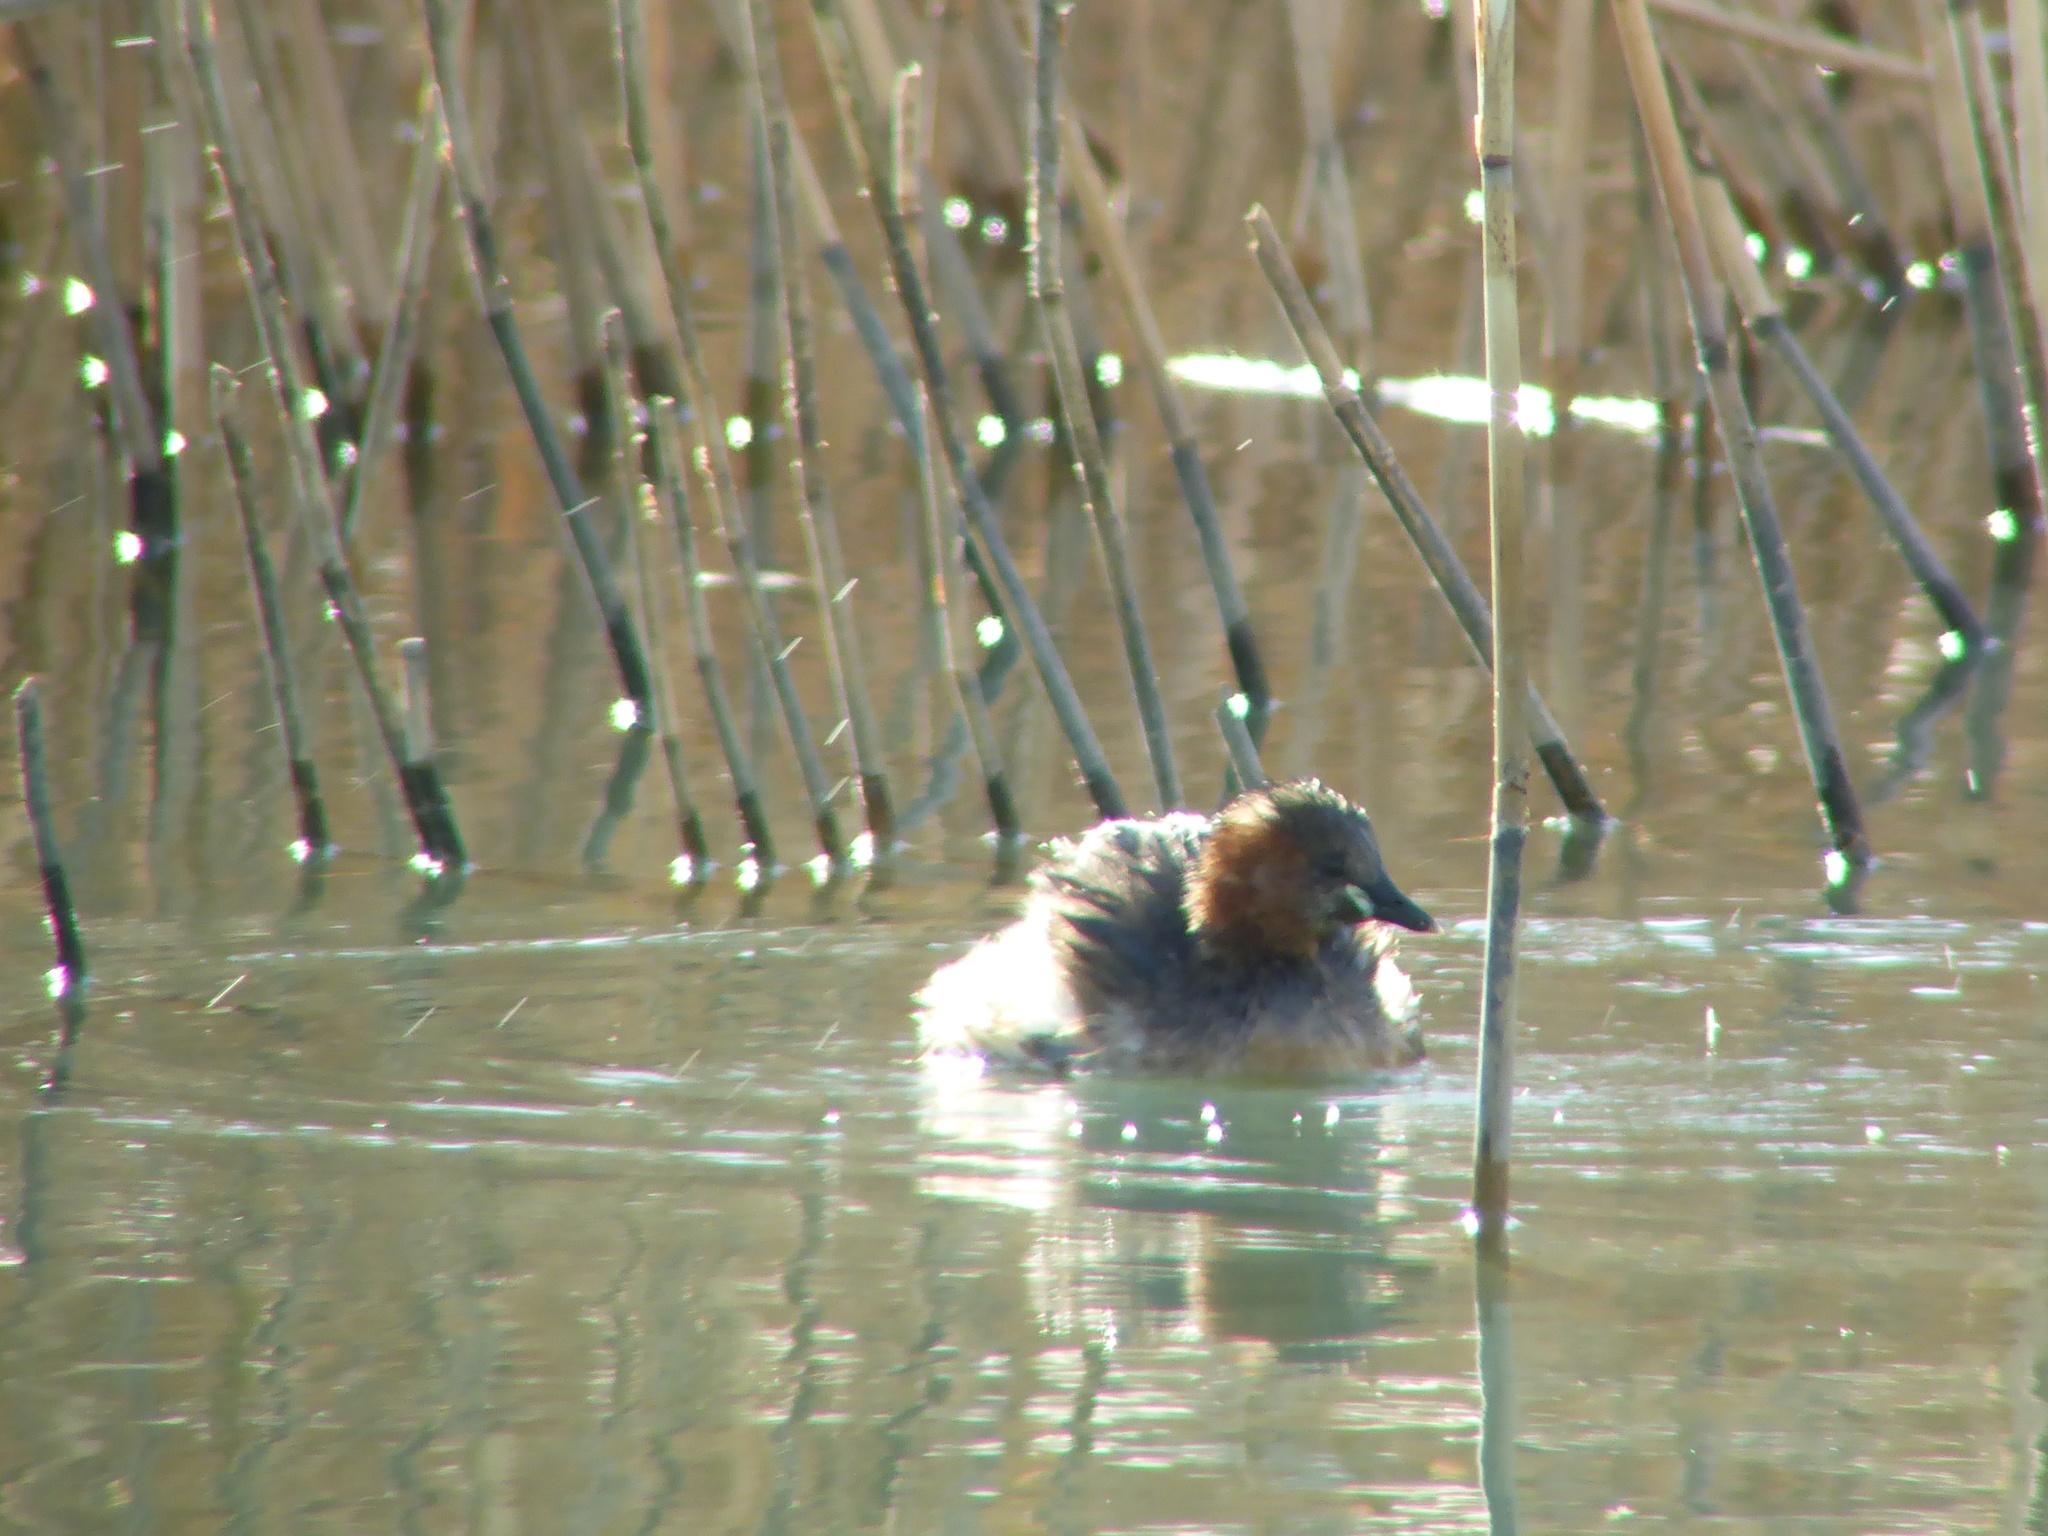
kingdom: Animalia
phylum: Chordata
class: Aves
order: Podicipediformes
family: Podicipedidae
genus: Tachybaptus
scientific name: Tachybaptus ruficollis
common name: Little grebe
